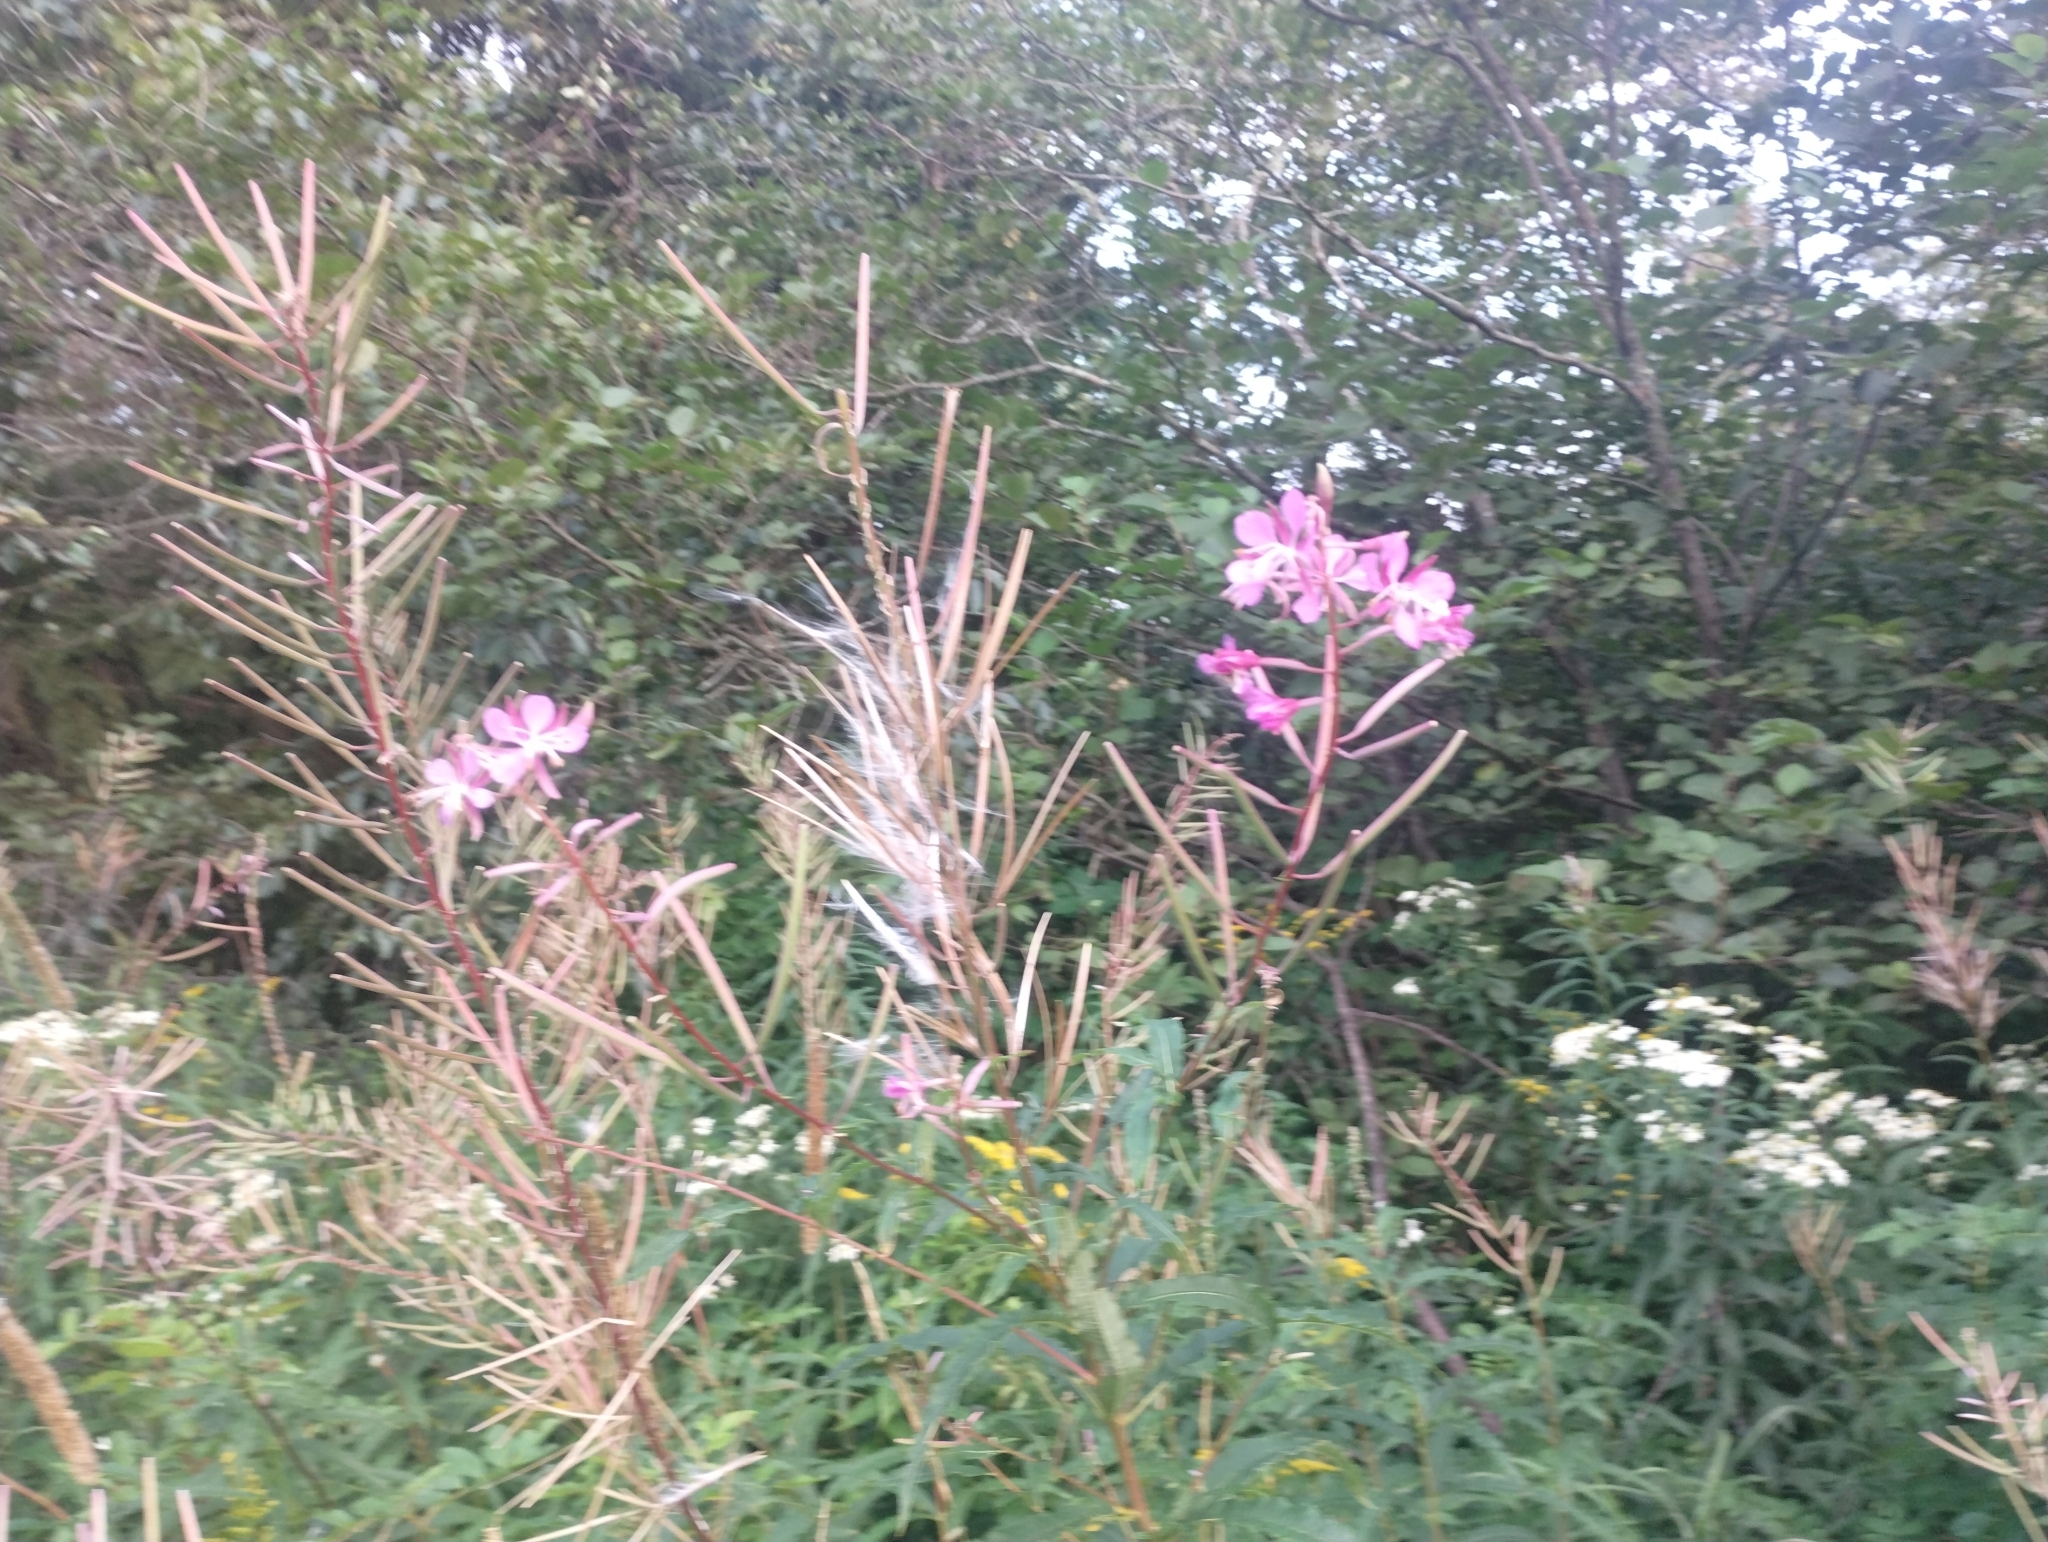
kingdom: Plantae
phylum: Tracheophyta
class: Magnoliopsida
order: Myrtales
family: Onagraceae
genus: Chamaenerion
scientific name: Chamaenerion angustifolium
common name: Fireweed
